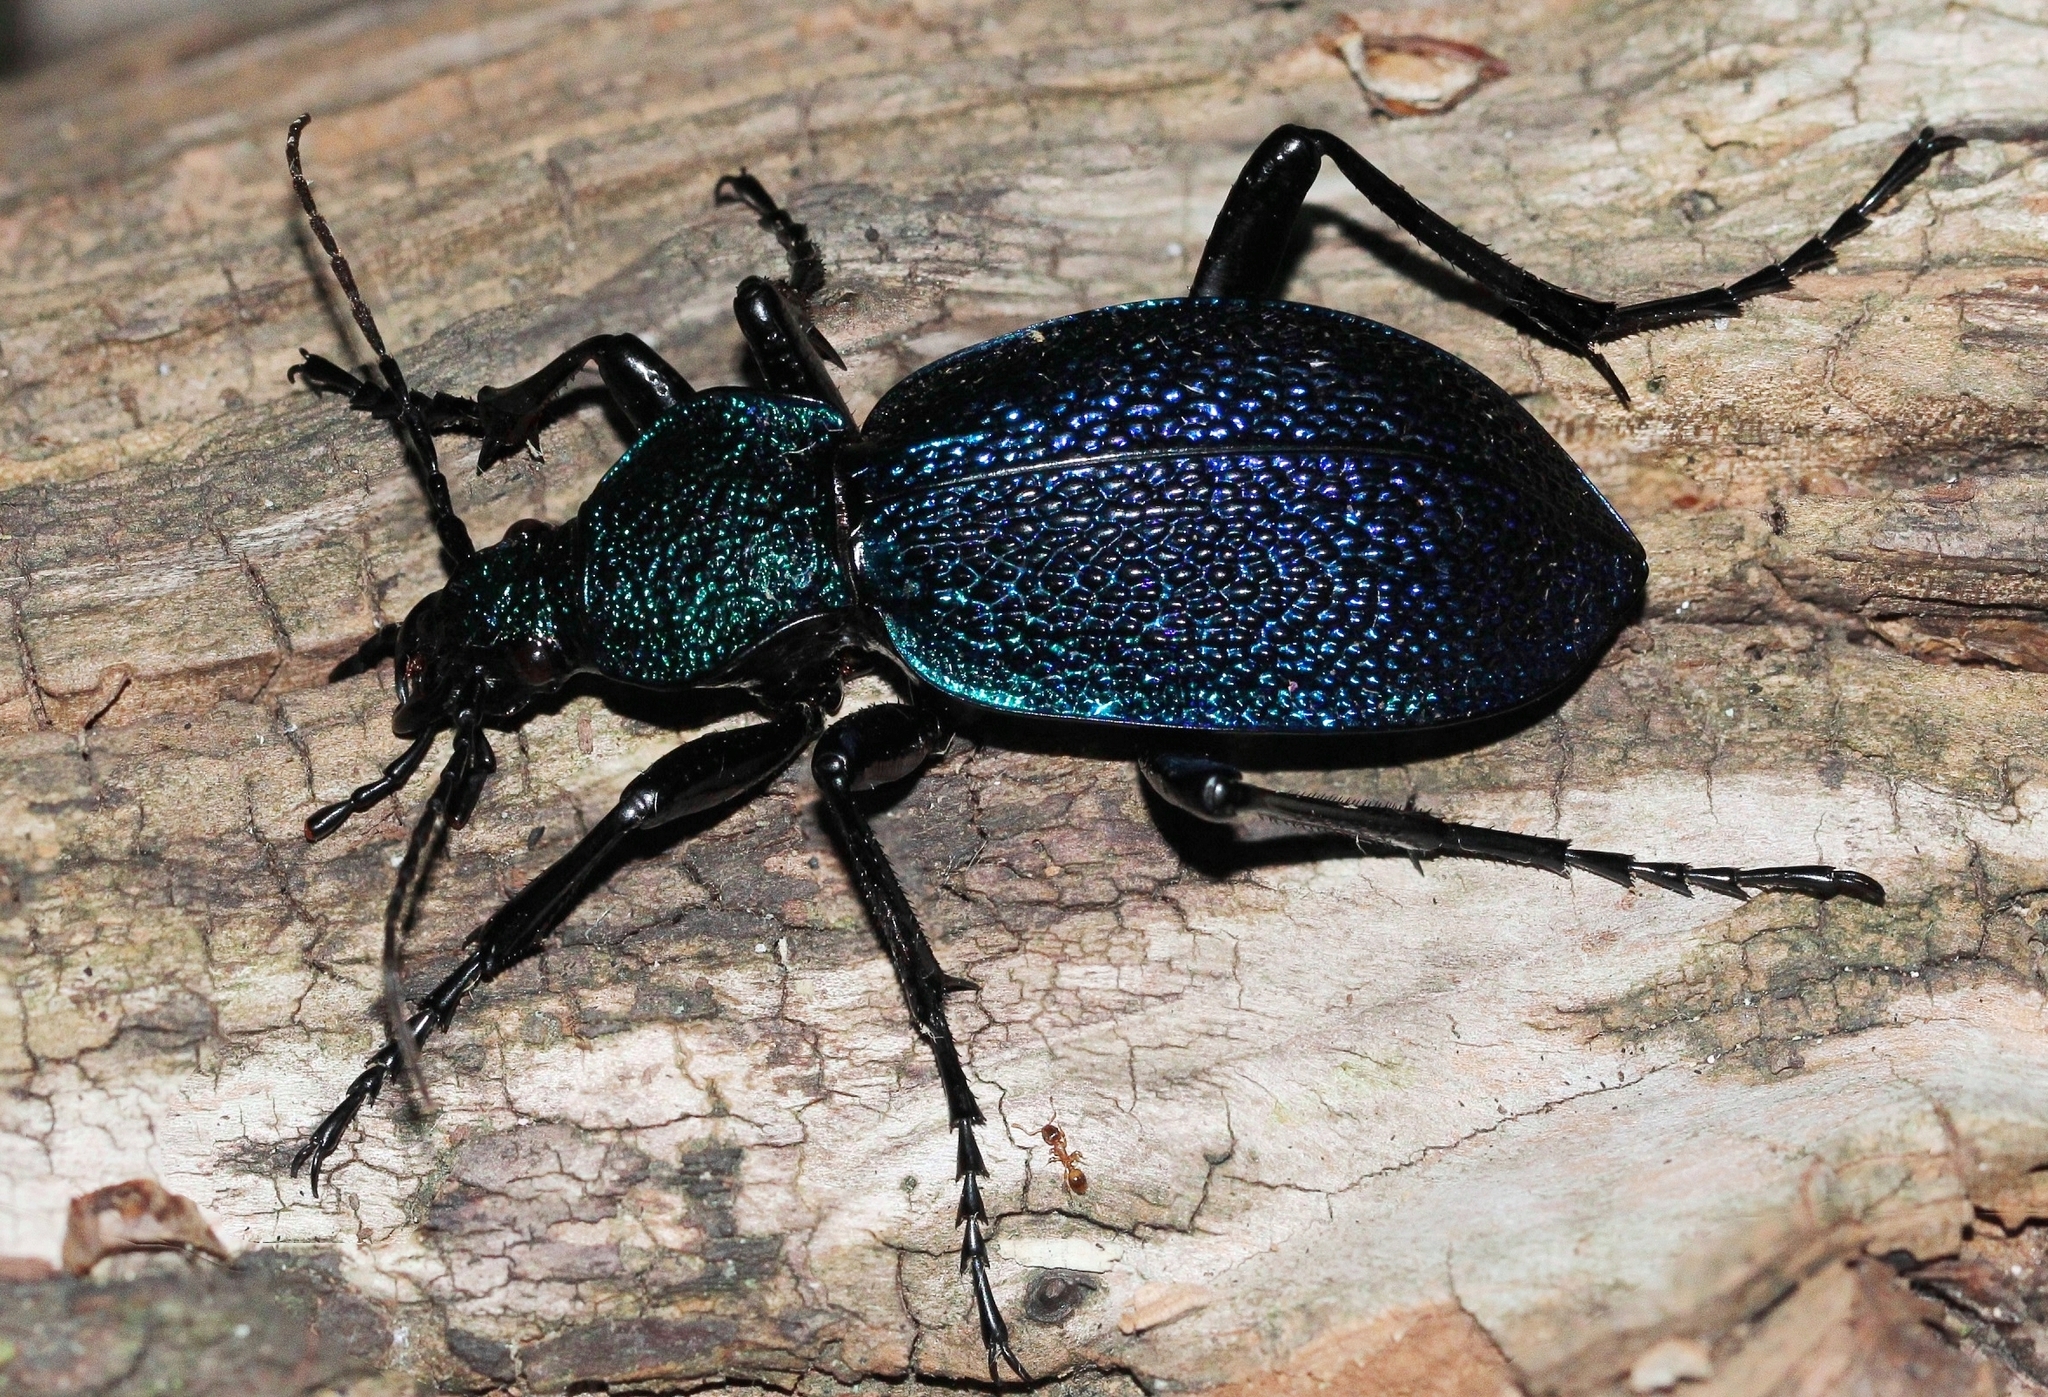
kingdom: Animalia
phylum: Arthropoda
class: Insecta
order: Coleoptera
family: Carabidae
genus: Carabus
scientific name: Carabus scabrosus
